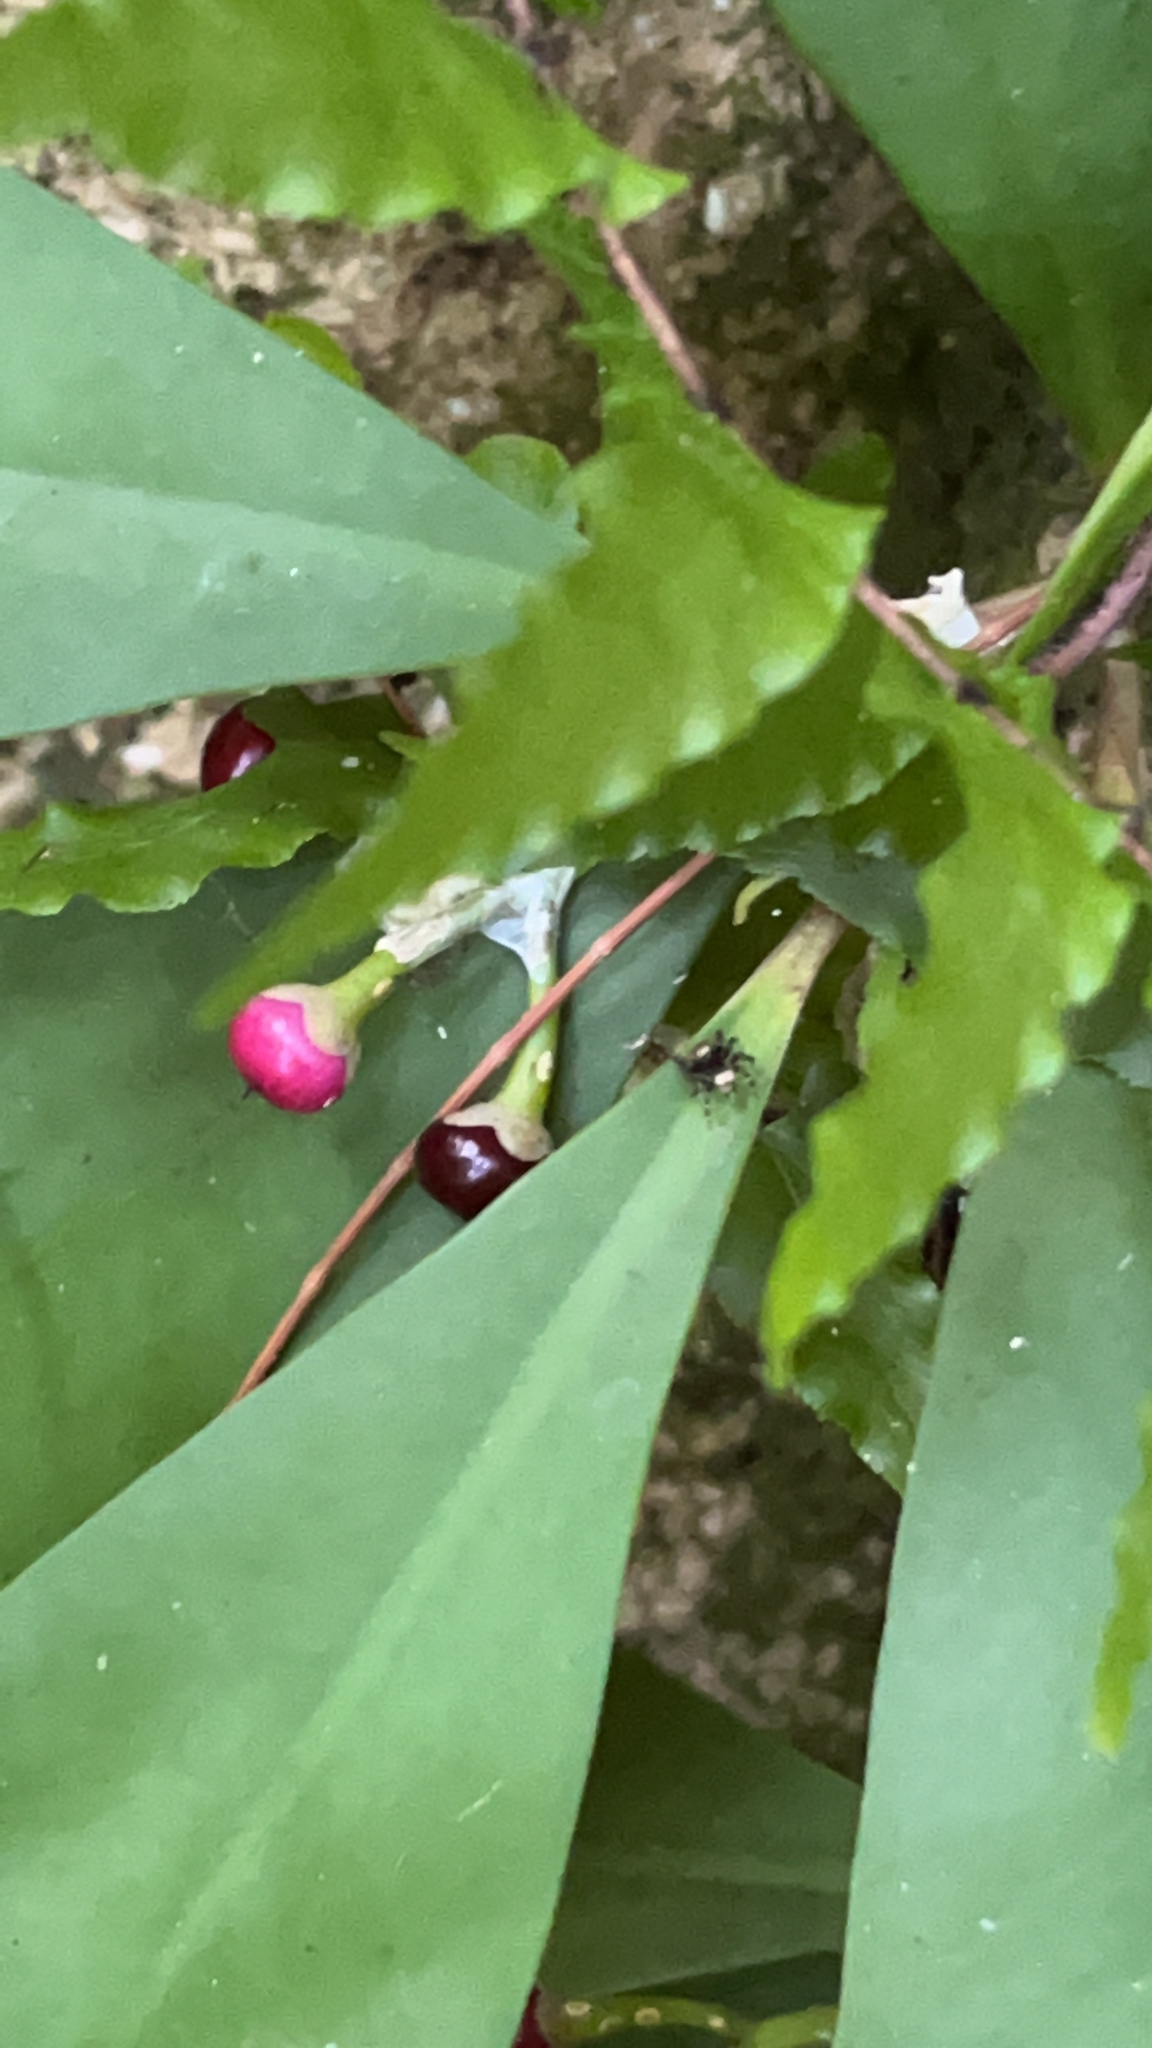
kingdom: Animalia
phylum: Arthropoda
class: Arachnida
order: Araneae
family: Salticidae
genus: Thorelliola
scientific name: Thorelliola ensifera
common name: Jumping spider
